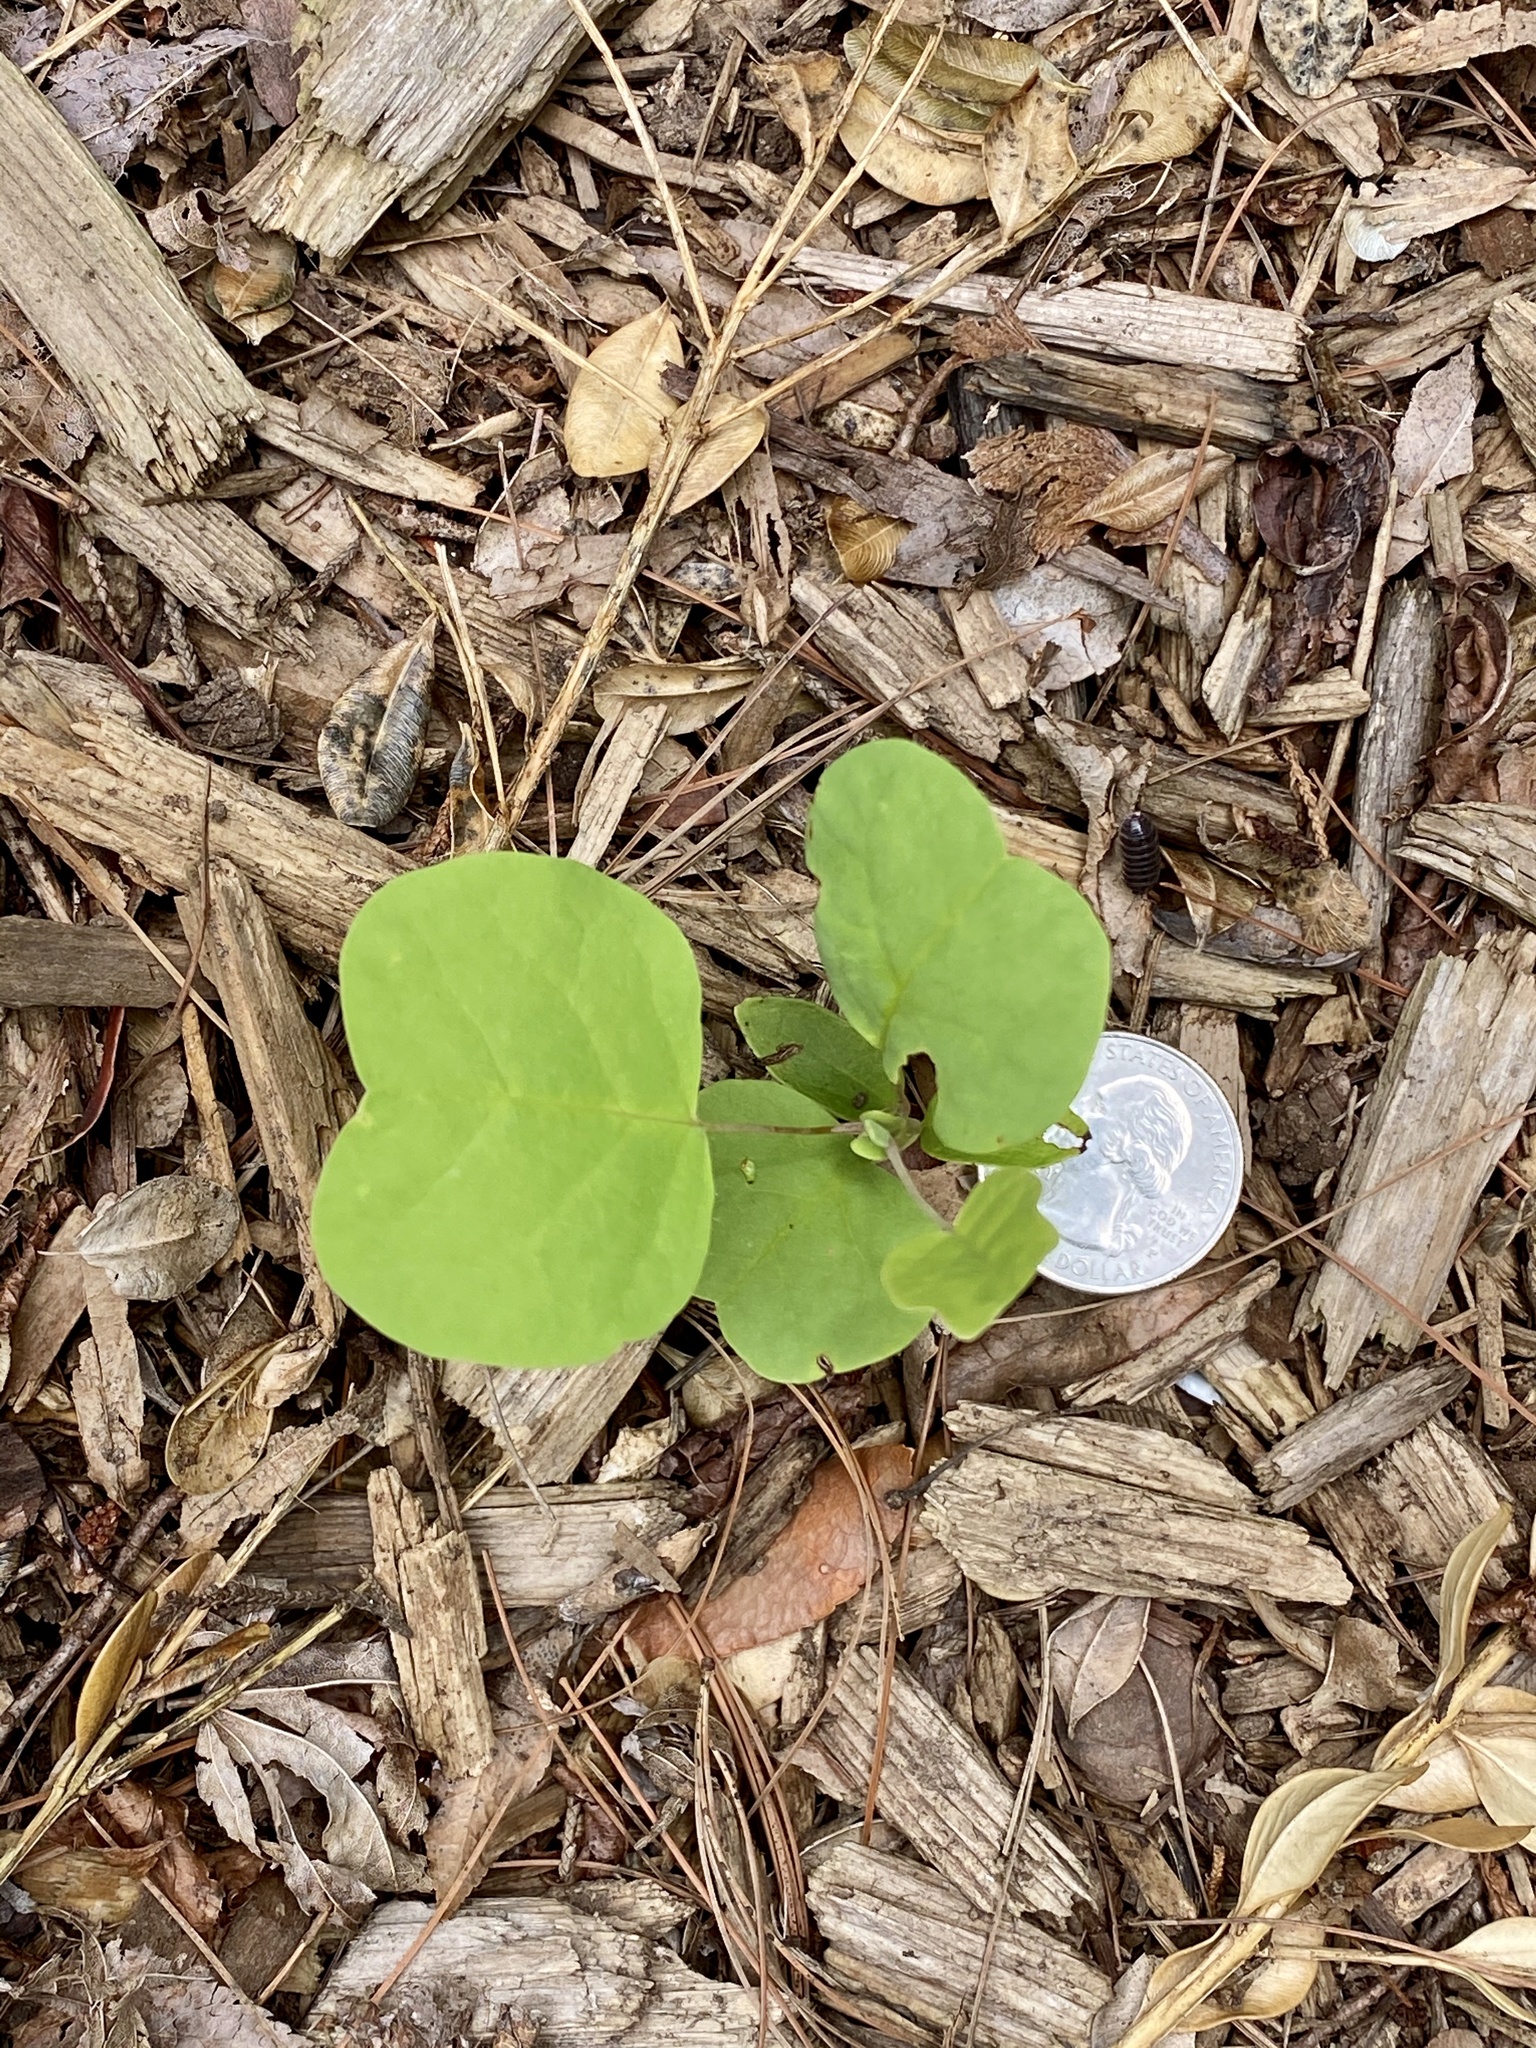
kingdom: Plantae
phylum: Tracheophyta
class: Magnoliopsida
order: Magnoliales
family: Magnoliaceae
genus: Liriodendron
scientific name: Liriodendron tulipifera
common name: Tulip tree
